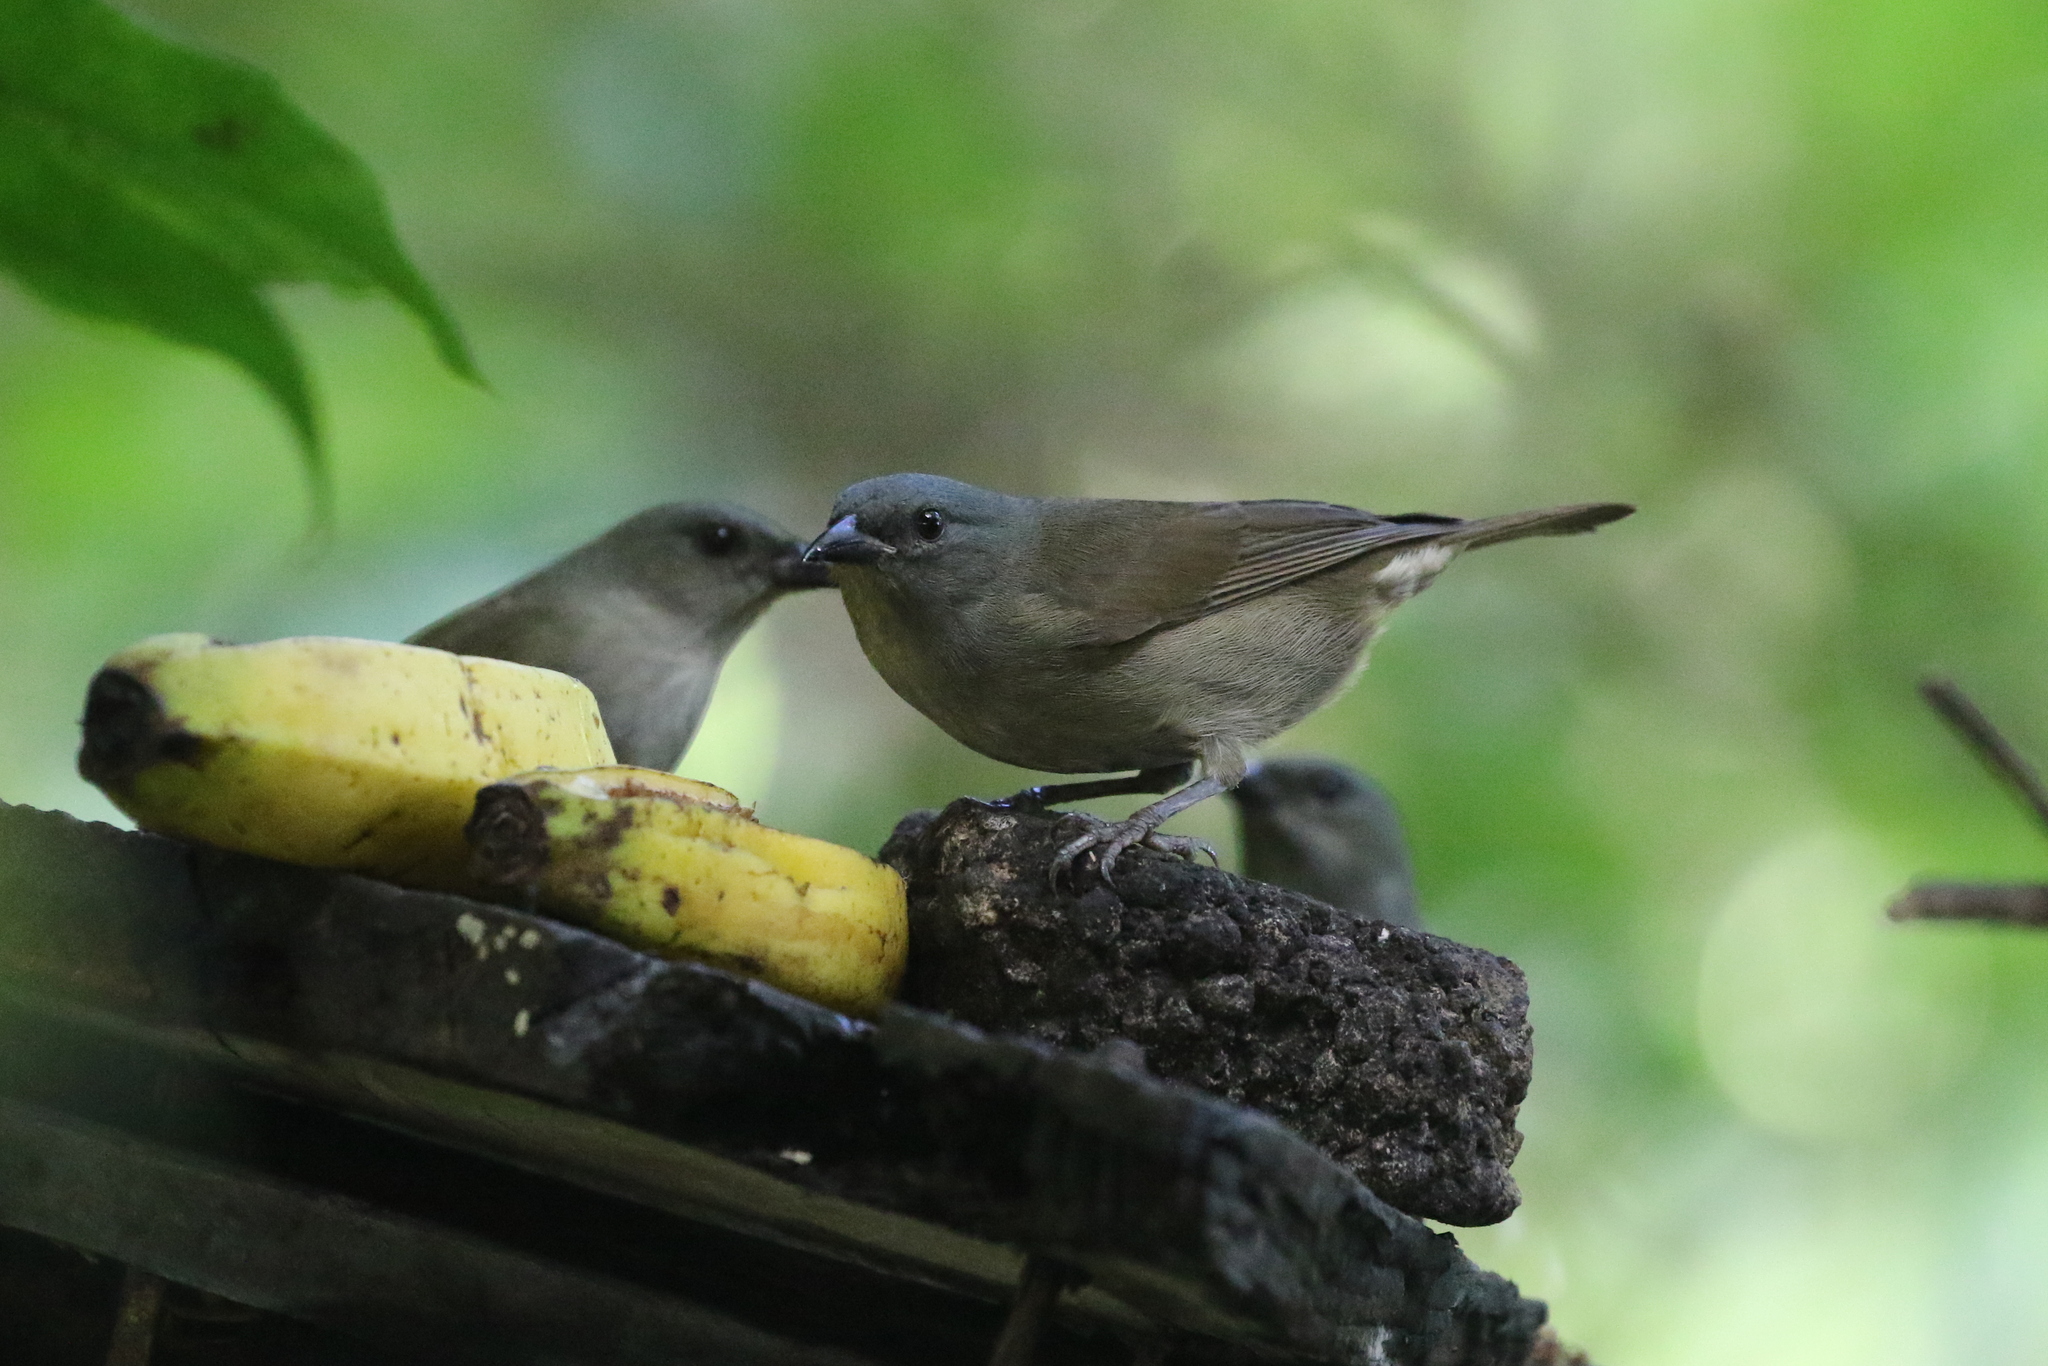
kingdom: Animalia
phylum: Chordata
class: Aves
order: Passeriformes
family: Thraupidae
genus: Euneornis
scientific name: Euneornis campestris
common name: Orangequit
